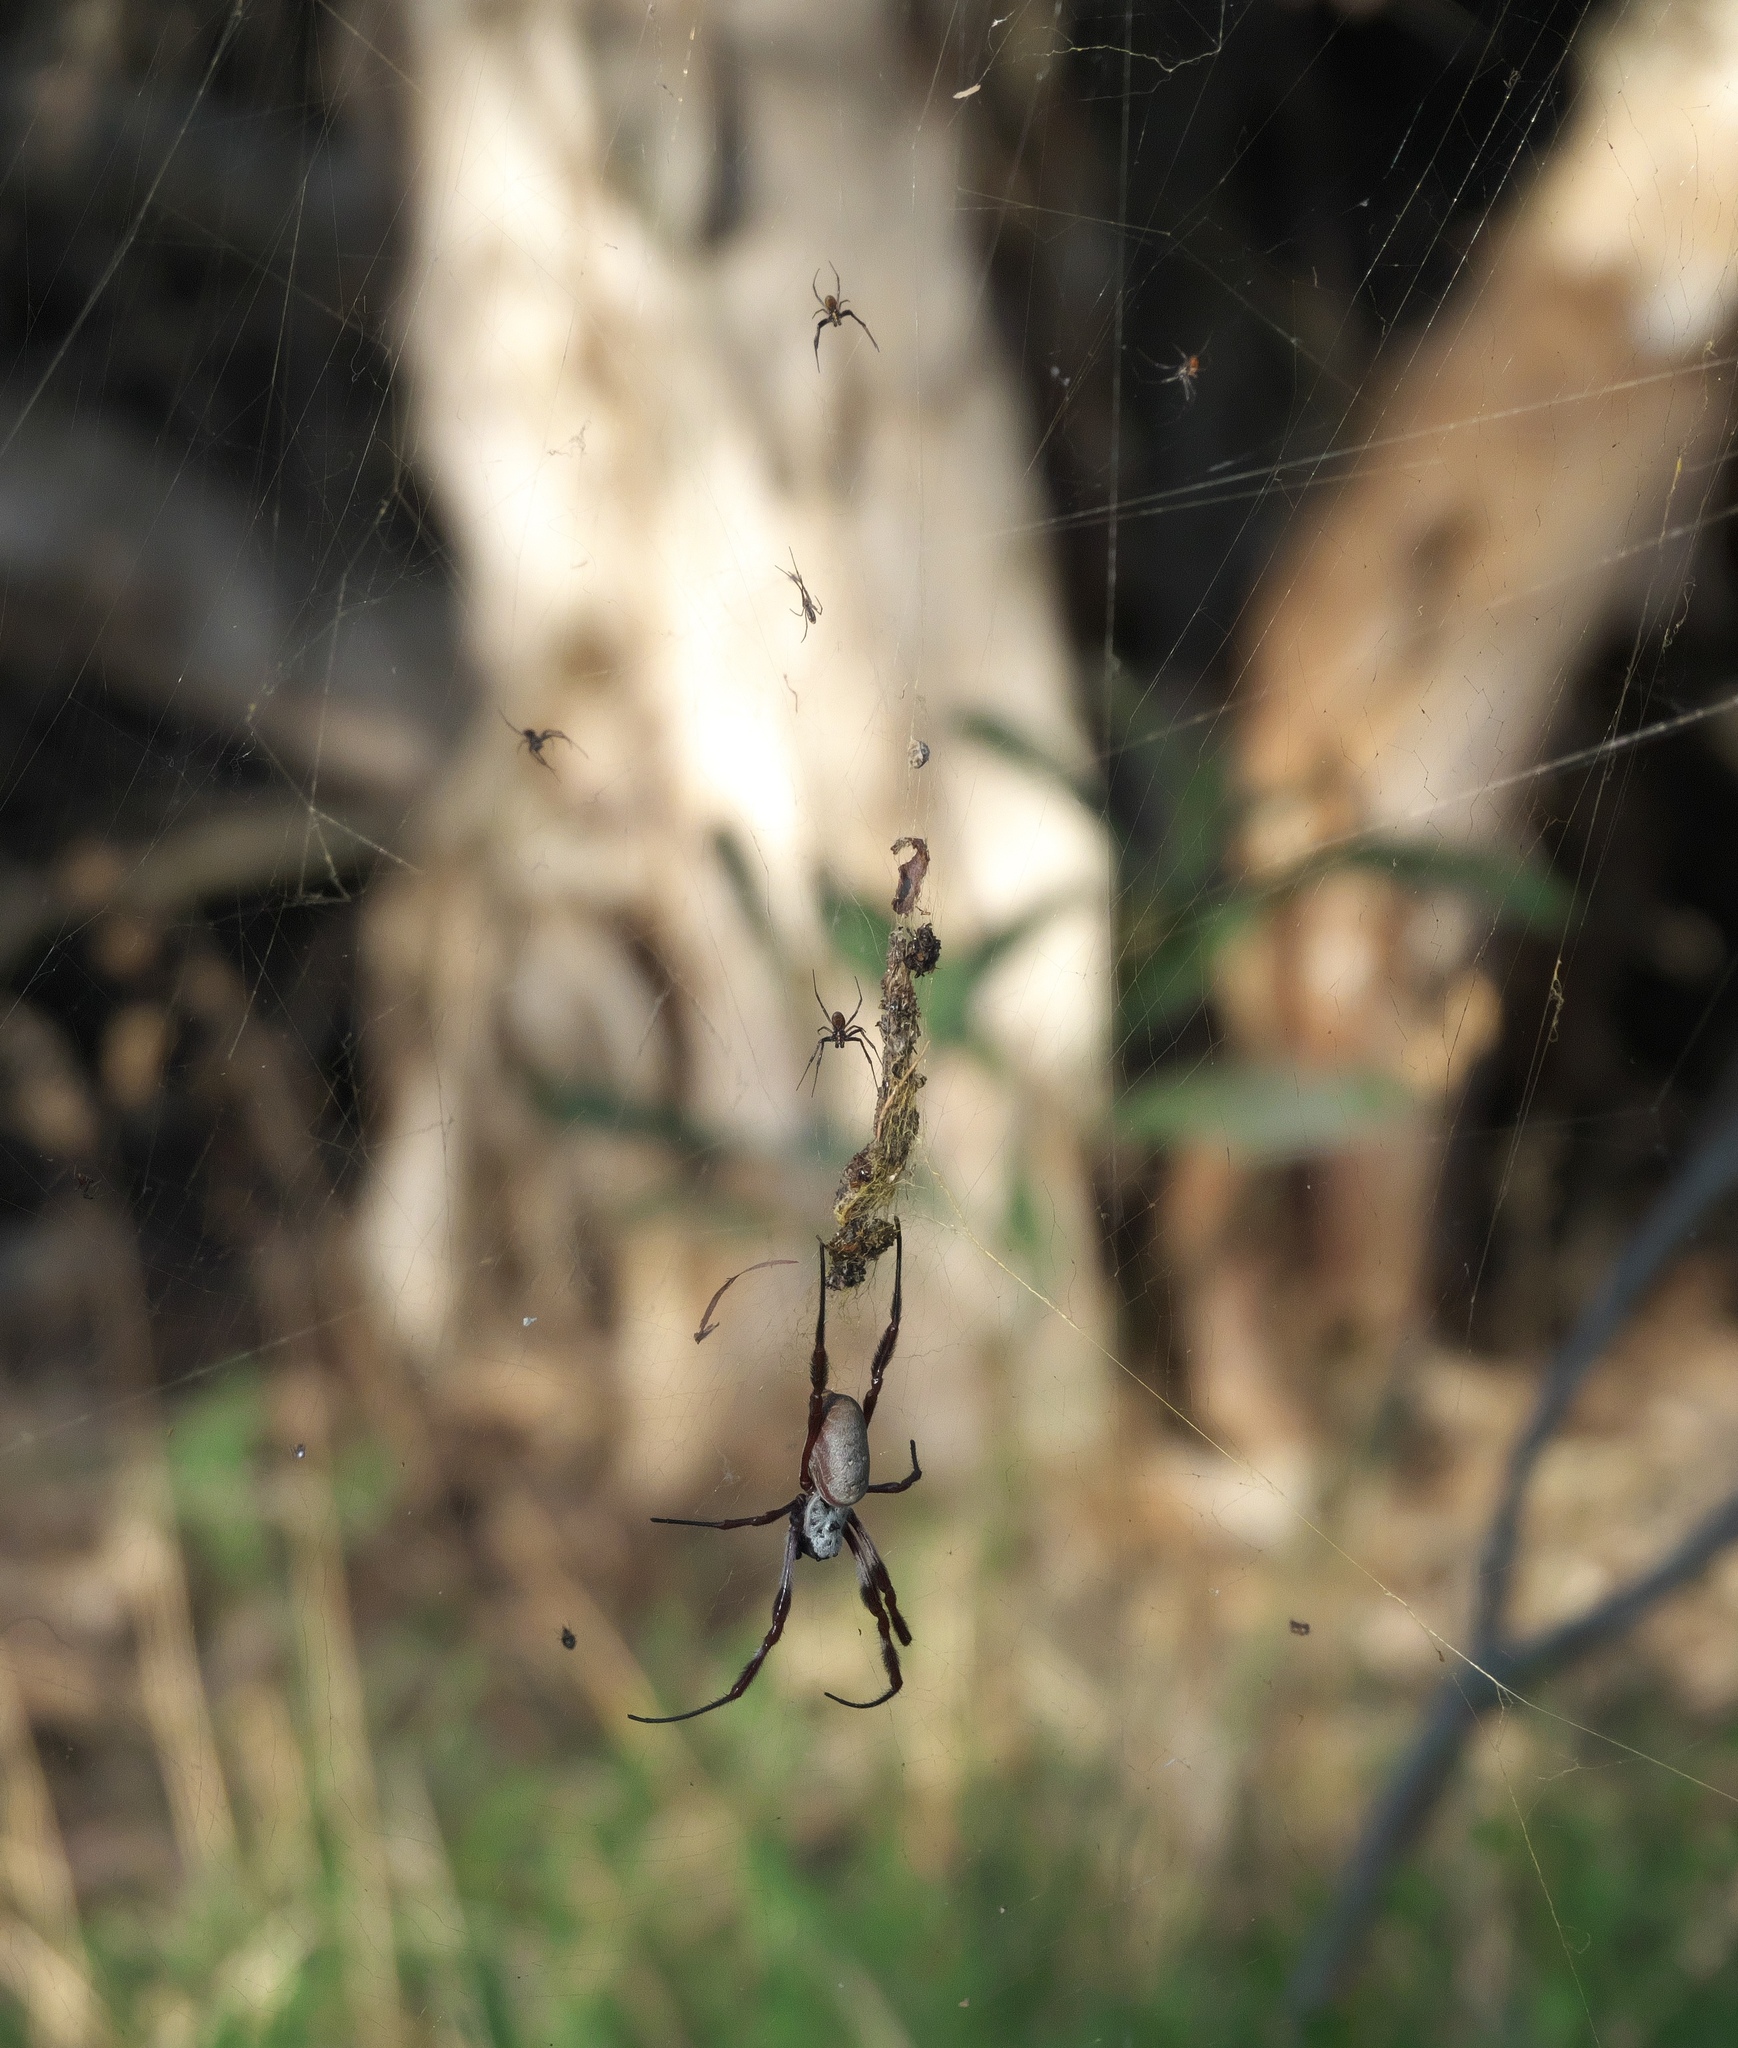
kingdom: Animalia
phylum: Arthropoda
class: Arachnida
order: Araneae
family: Araneidae
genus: Trichonephila
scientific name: Trichonephila edulis
